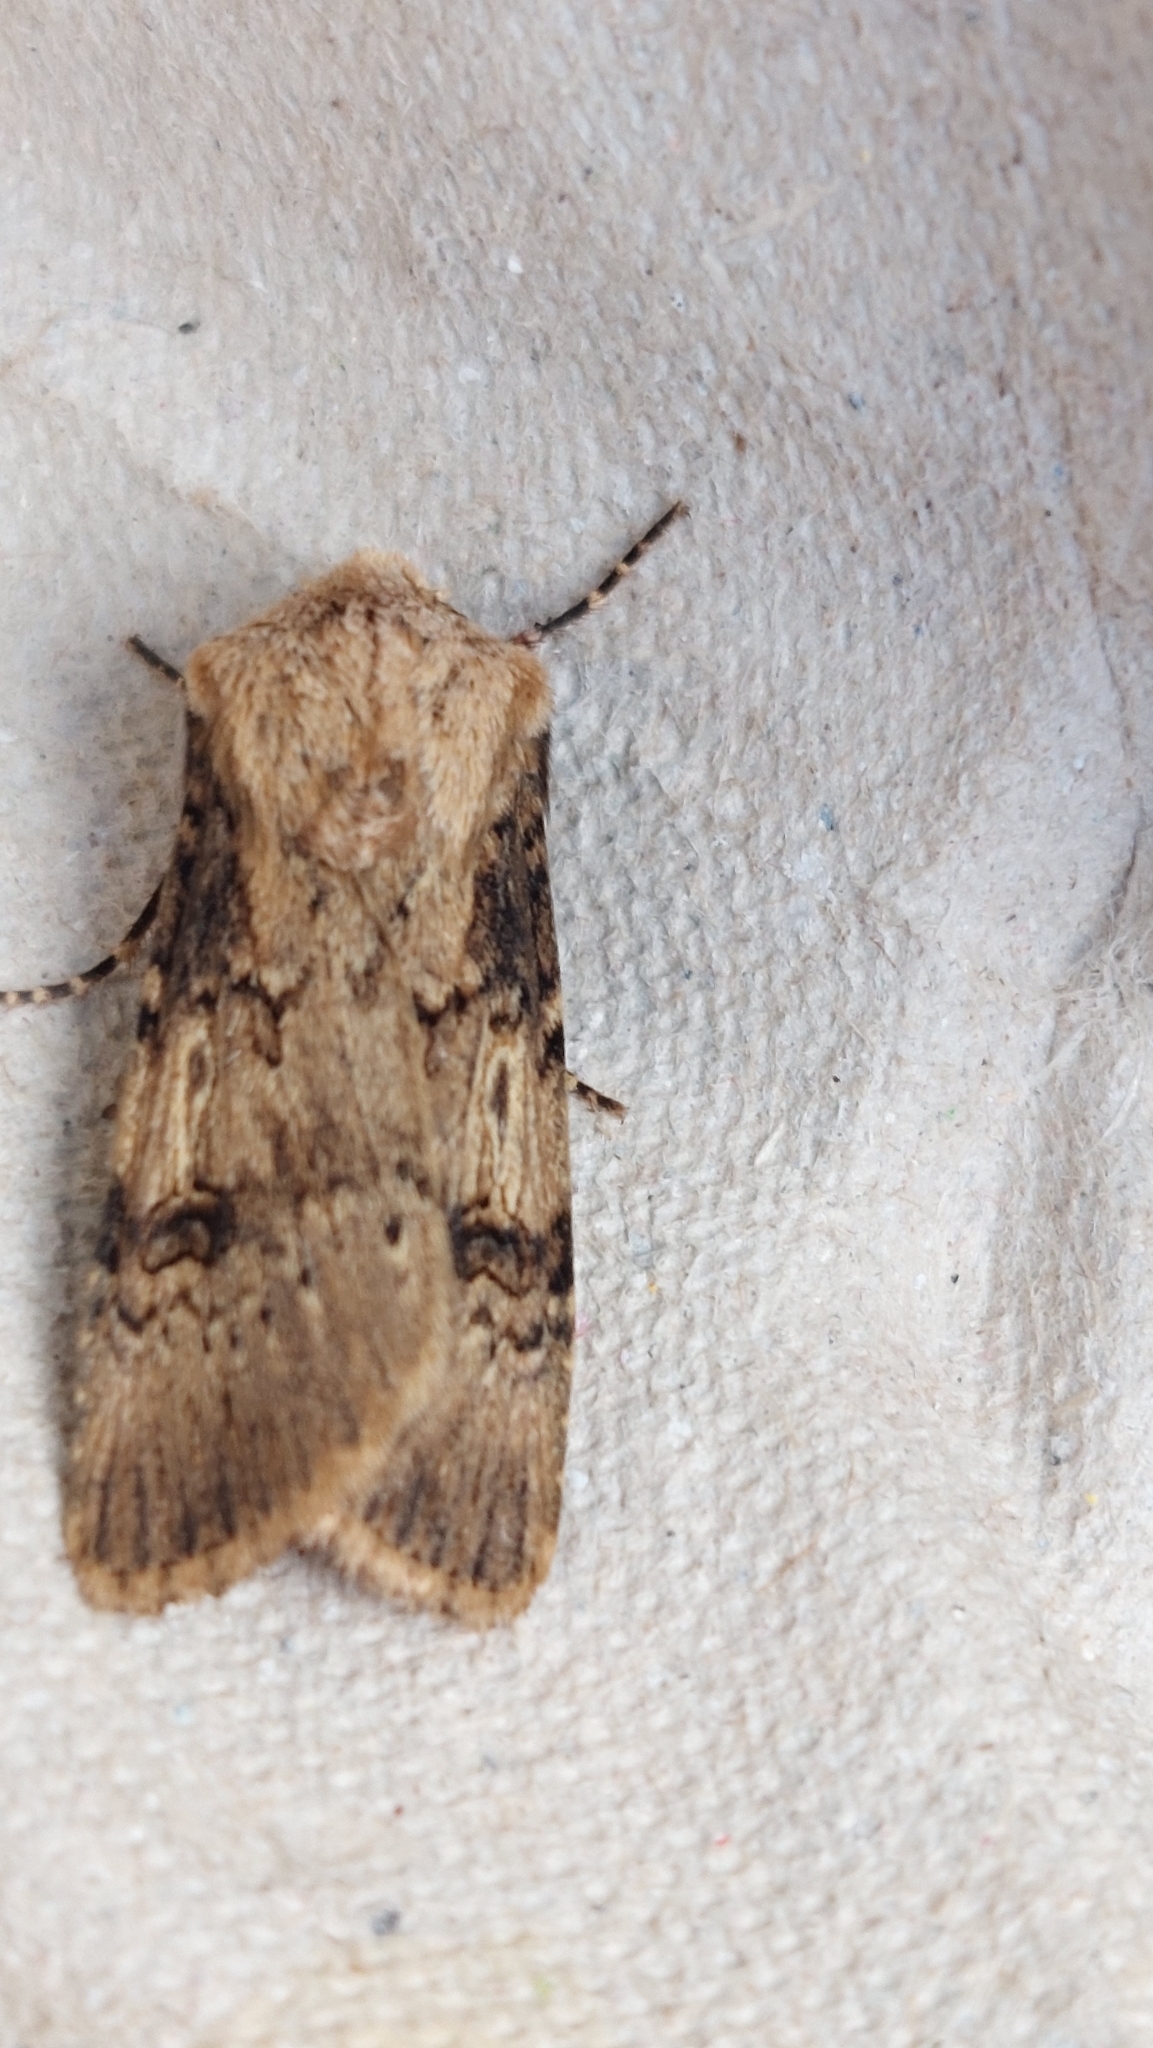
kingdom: Animalia
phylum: Arthropoda
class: Insecta
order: Lepidoptera
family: Noctuidae
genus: Agrotis
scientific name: Agrotis puta
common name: Shuttle-shaped dart
